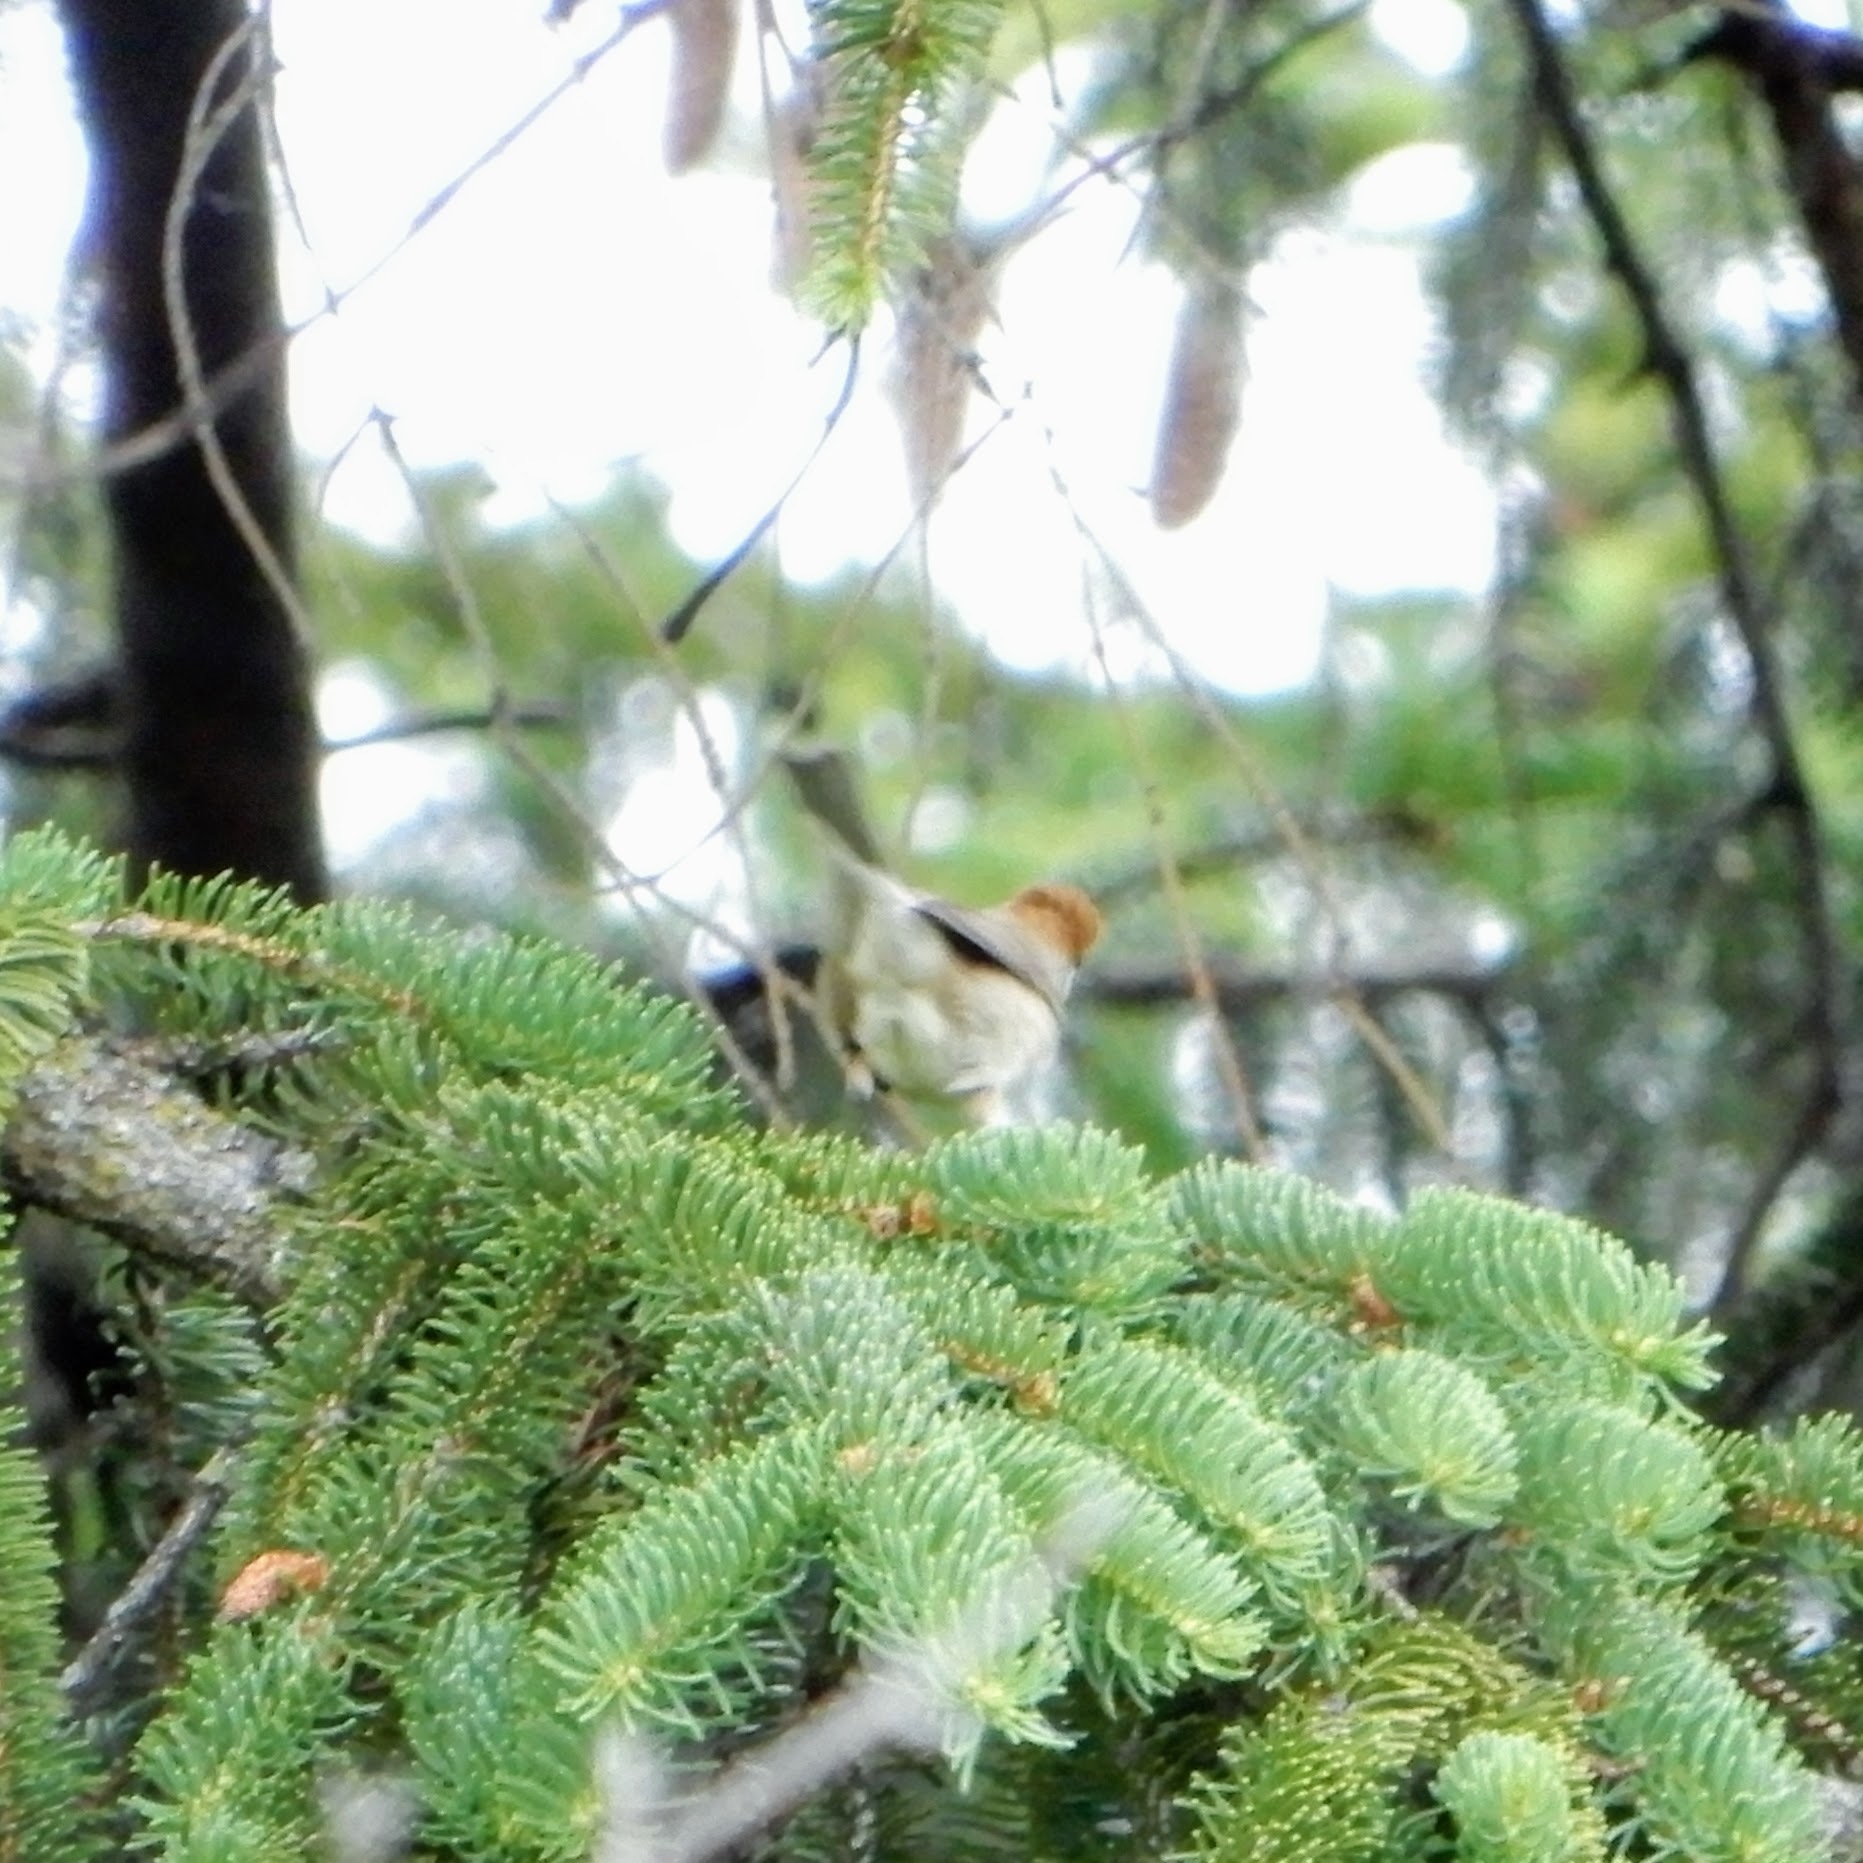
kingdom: Animalia
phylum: Chordata
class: Aves
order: Passeriformes
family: Sylviidae
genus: Sylvia
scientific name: Sylvia atricapilla
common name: Eurasian blackcap
